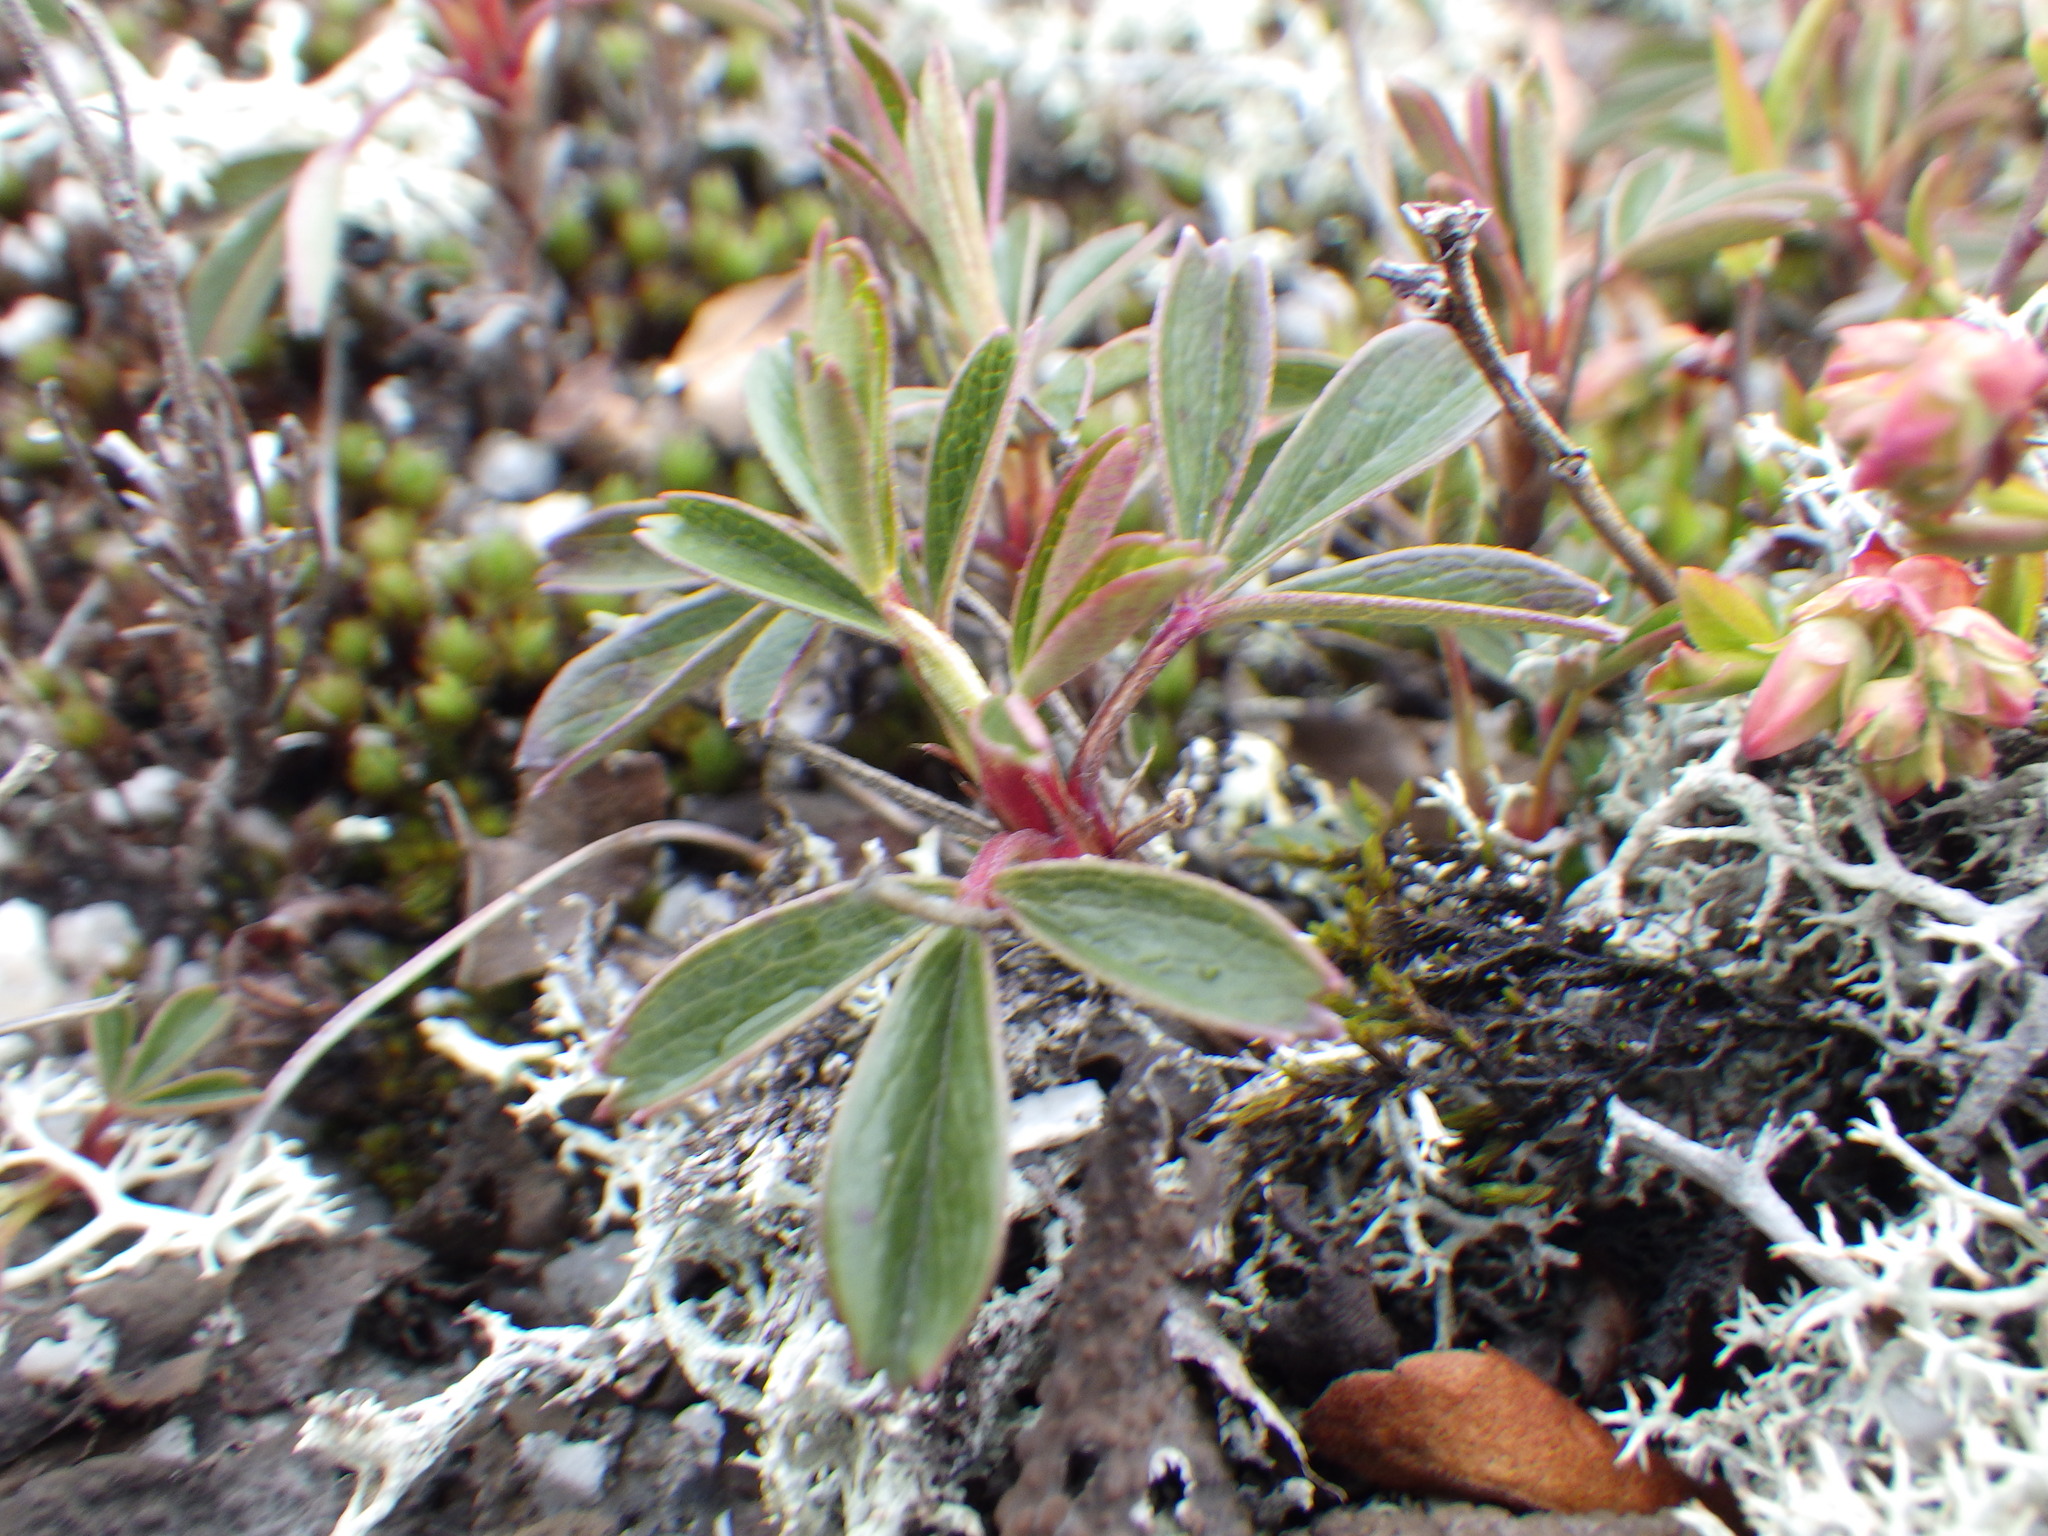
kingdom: Plantae
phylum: Tracheophyta
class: Magnoliopsida
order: Rosales
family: Rosaceae
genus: Sibbaldia
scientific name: Sibbaldia tridentata
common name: Three-toothed cinquefoil
